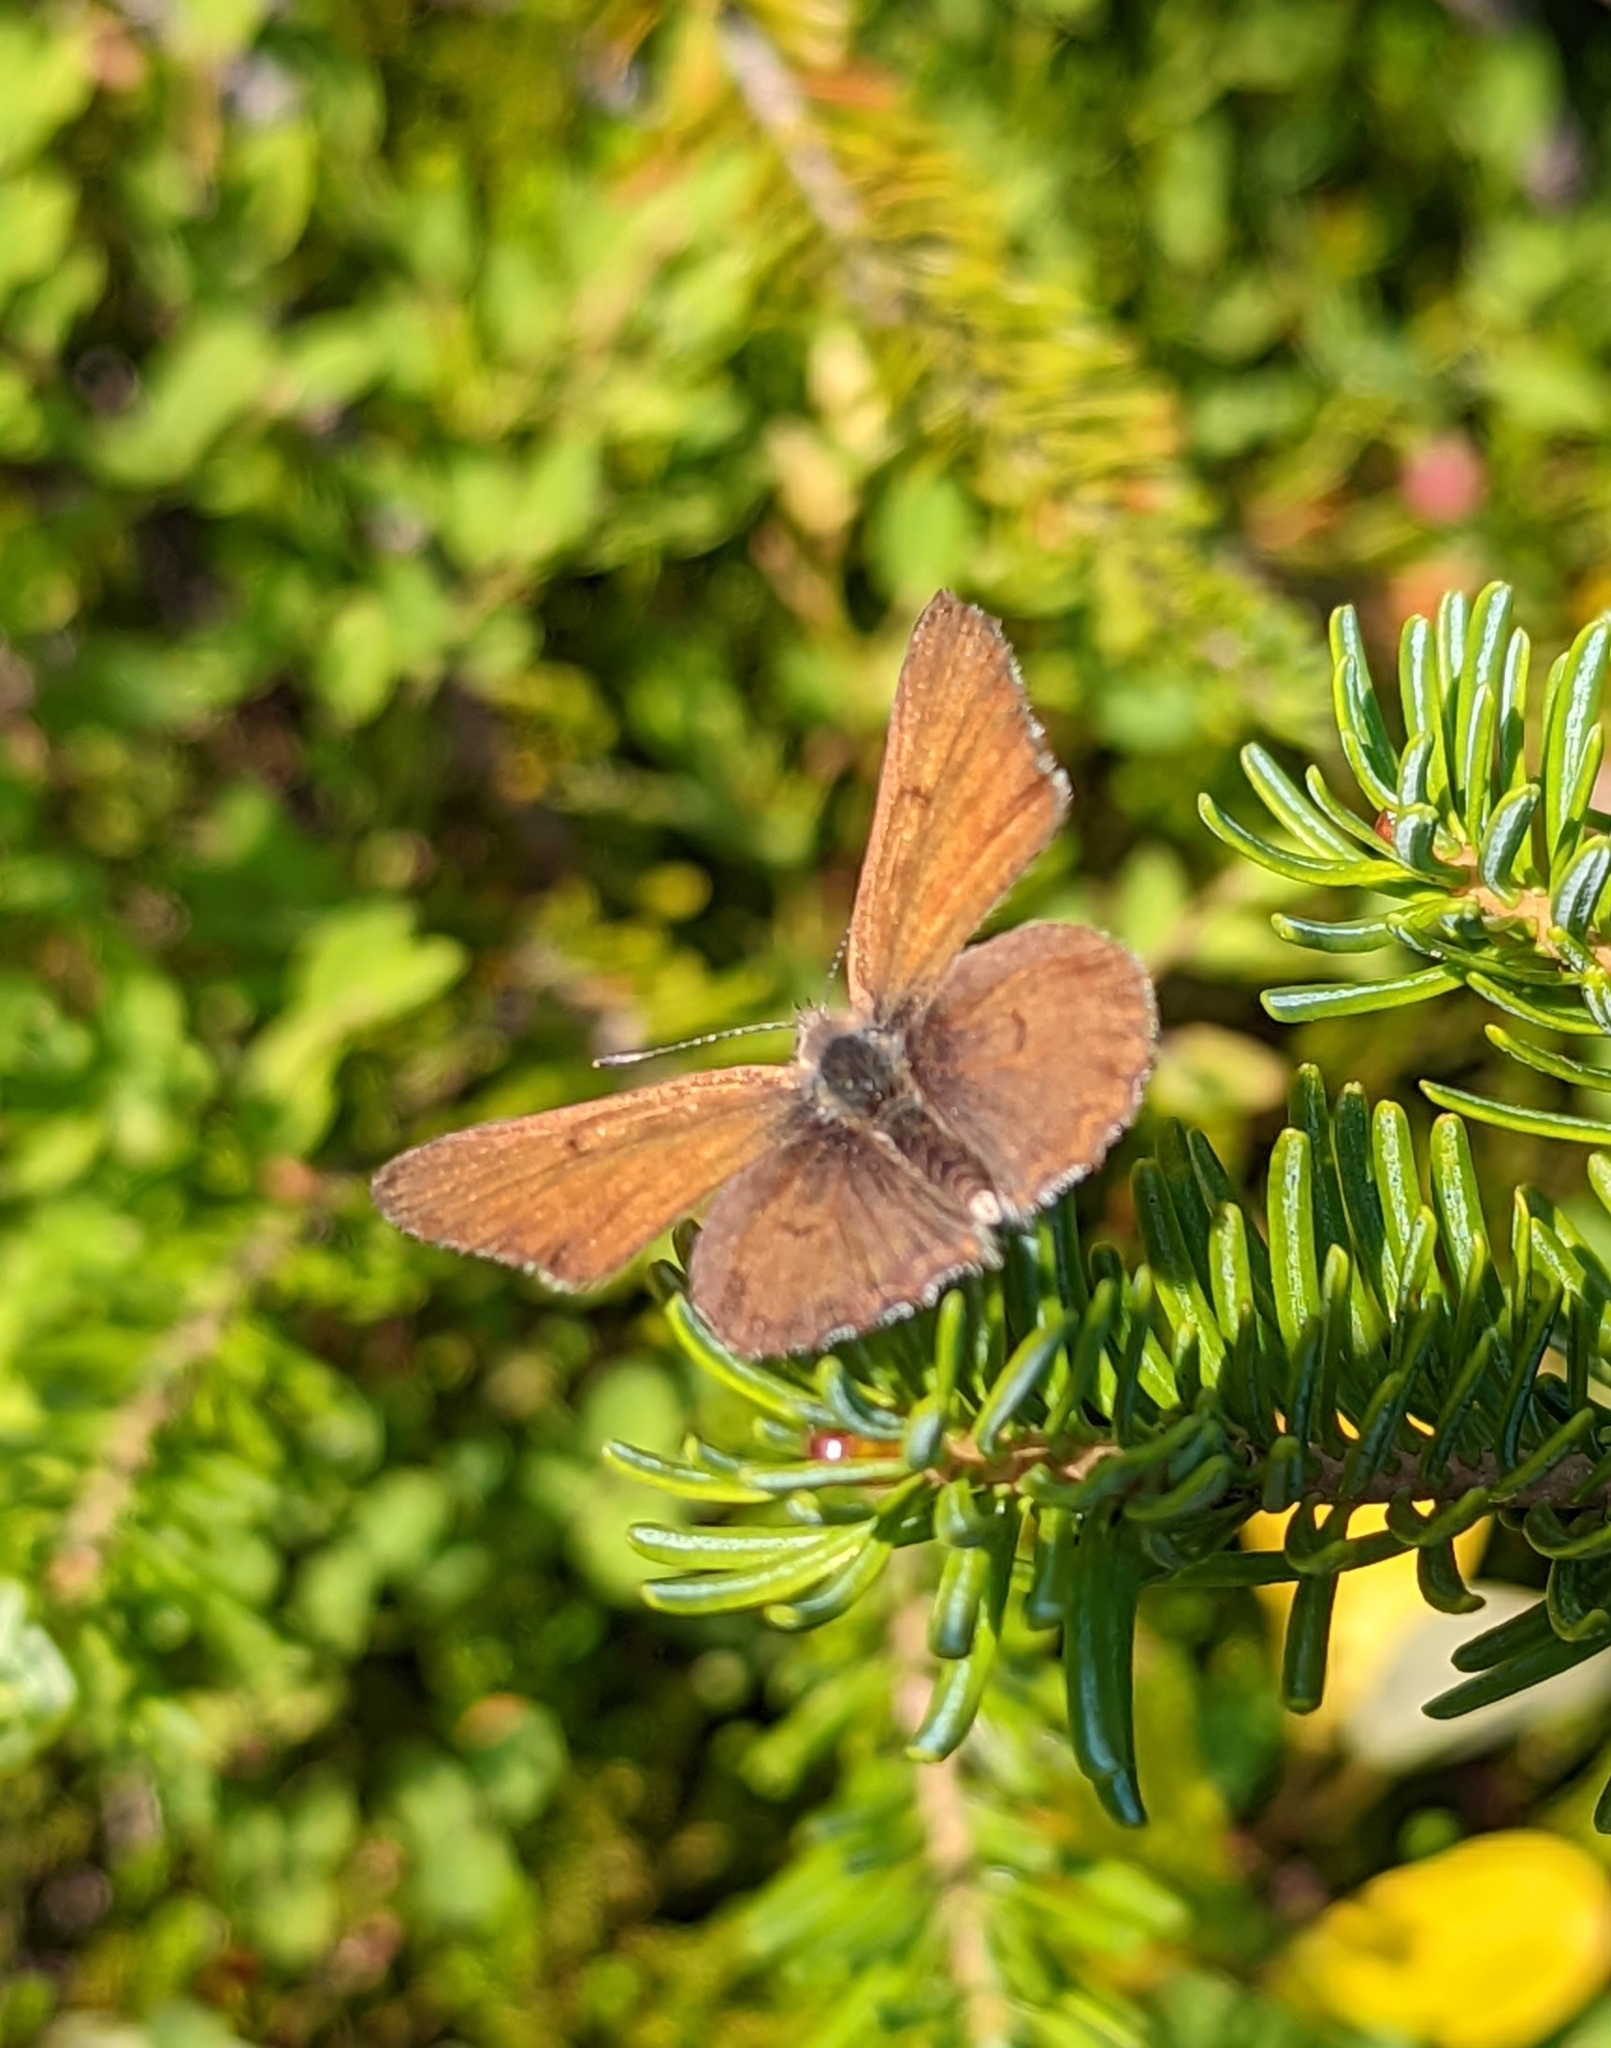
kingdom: Animalia
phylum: Arthropoda
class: Insecta
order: Lepidoptera
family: Lycaenidae
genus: Tharsalea
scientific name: Tharsalea mariposa
